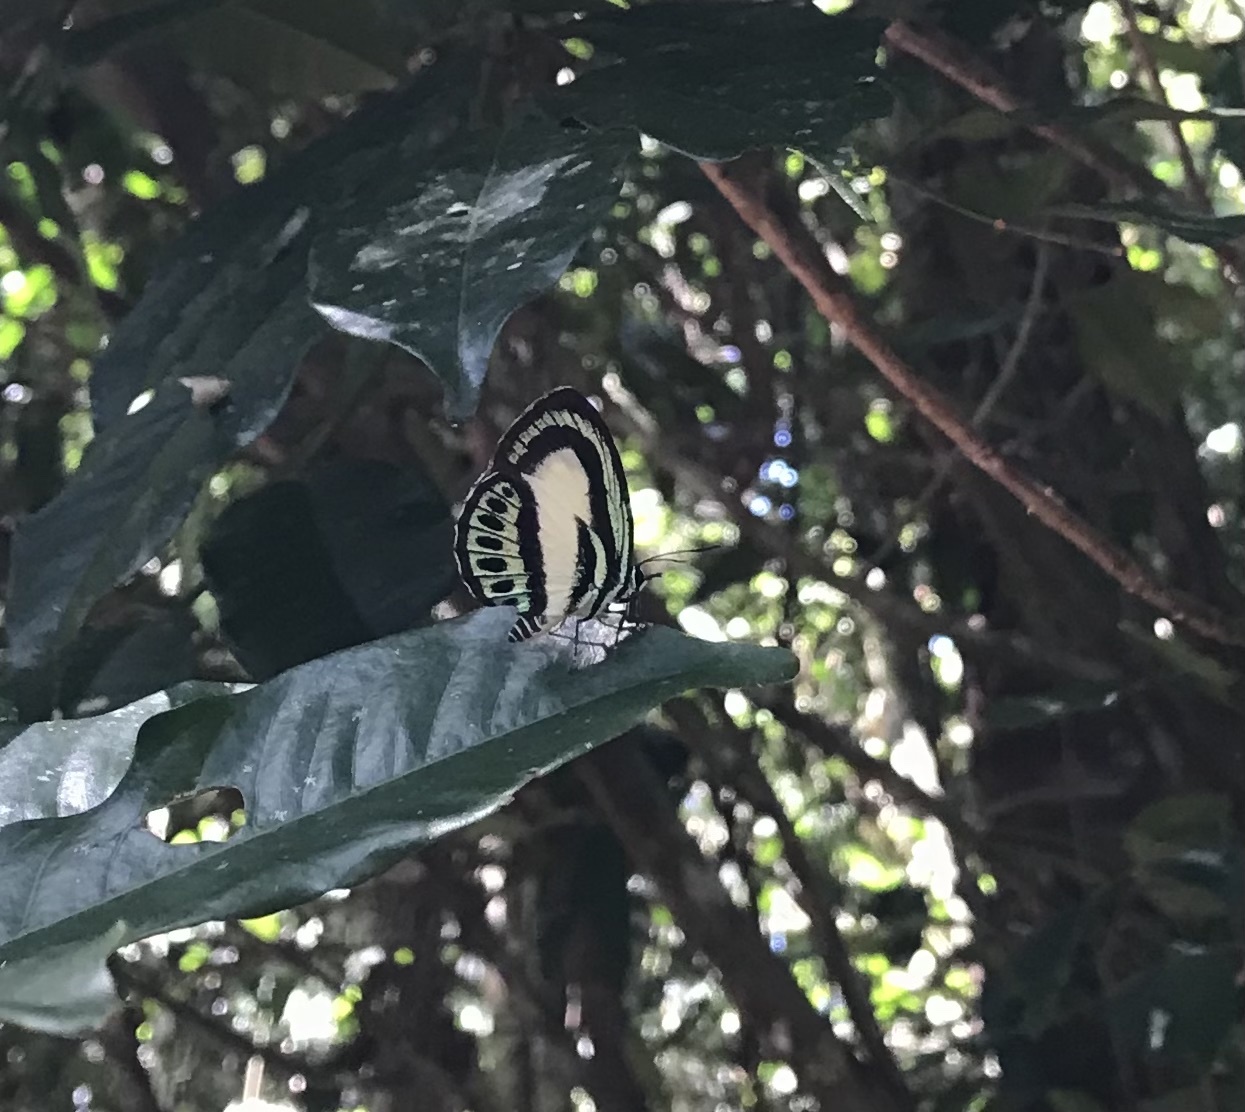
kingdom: Animalia
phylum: Arthropoda
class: Insecta
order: Lepidoptera
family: Lycaenidae
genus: Danis
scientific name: Danis danis
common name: Large green-banded blue
